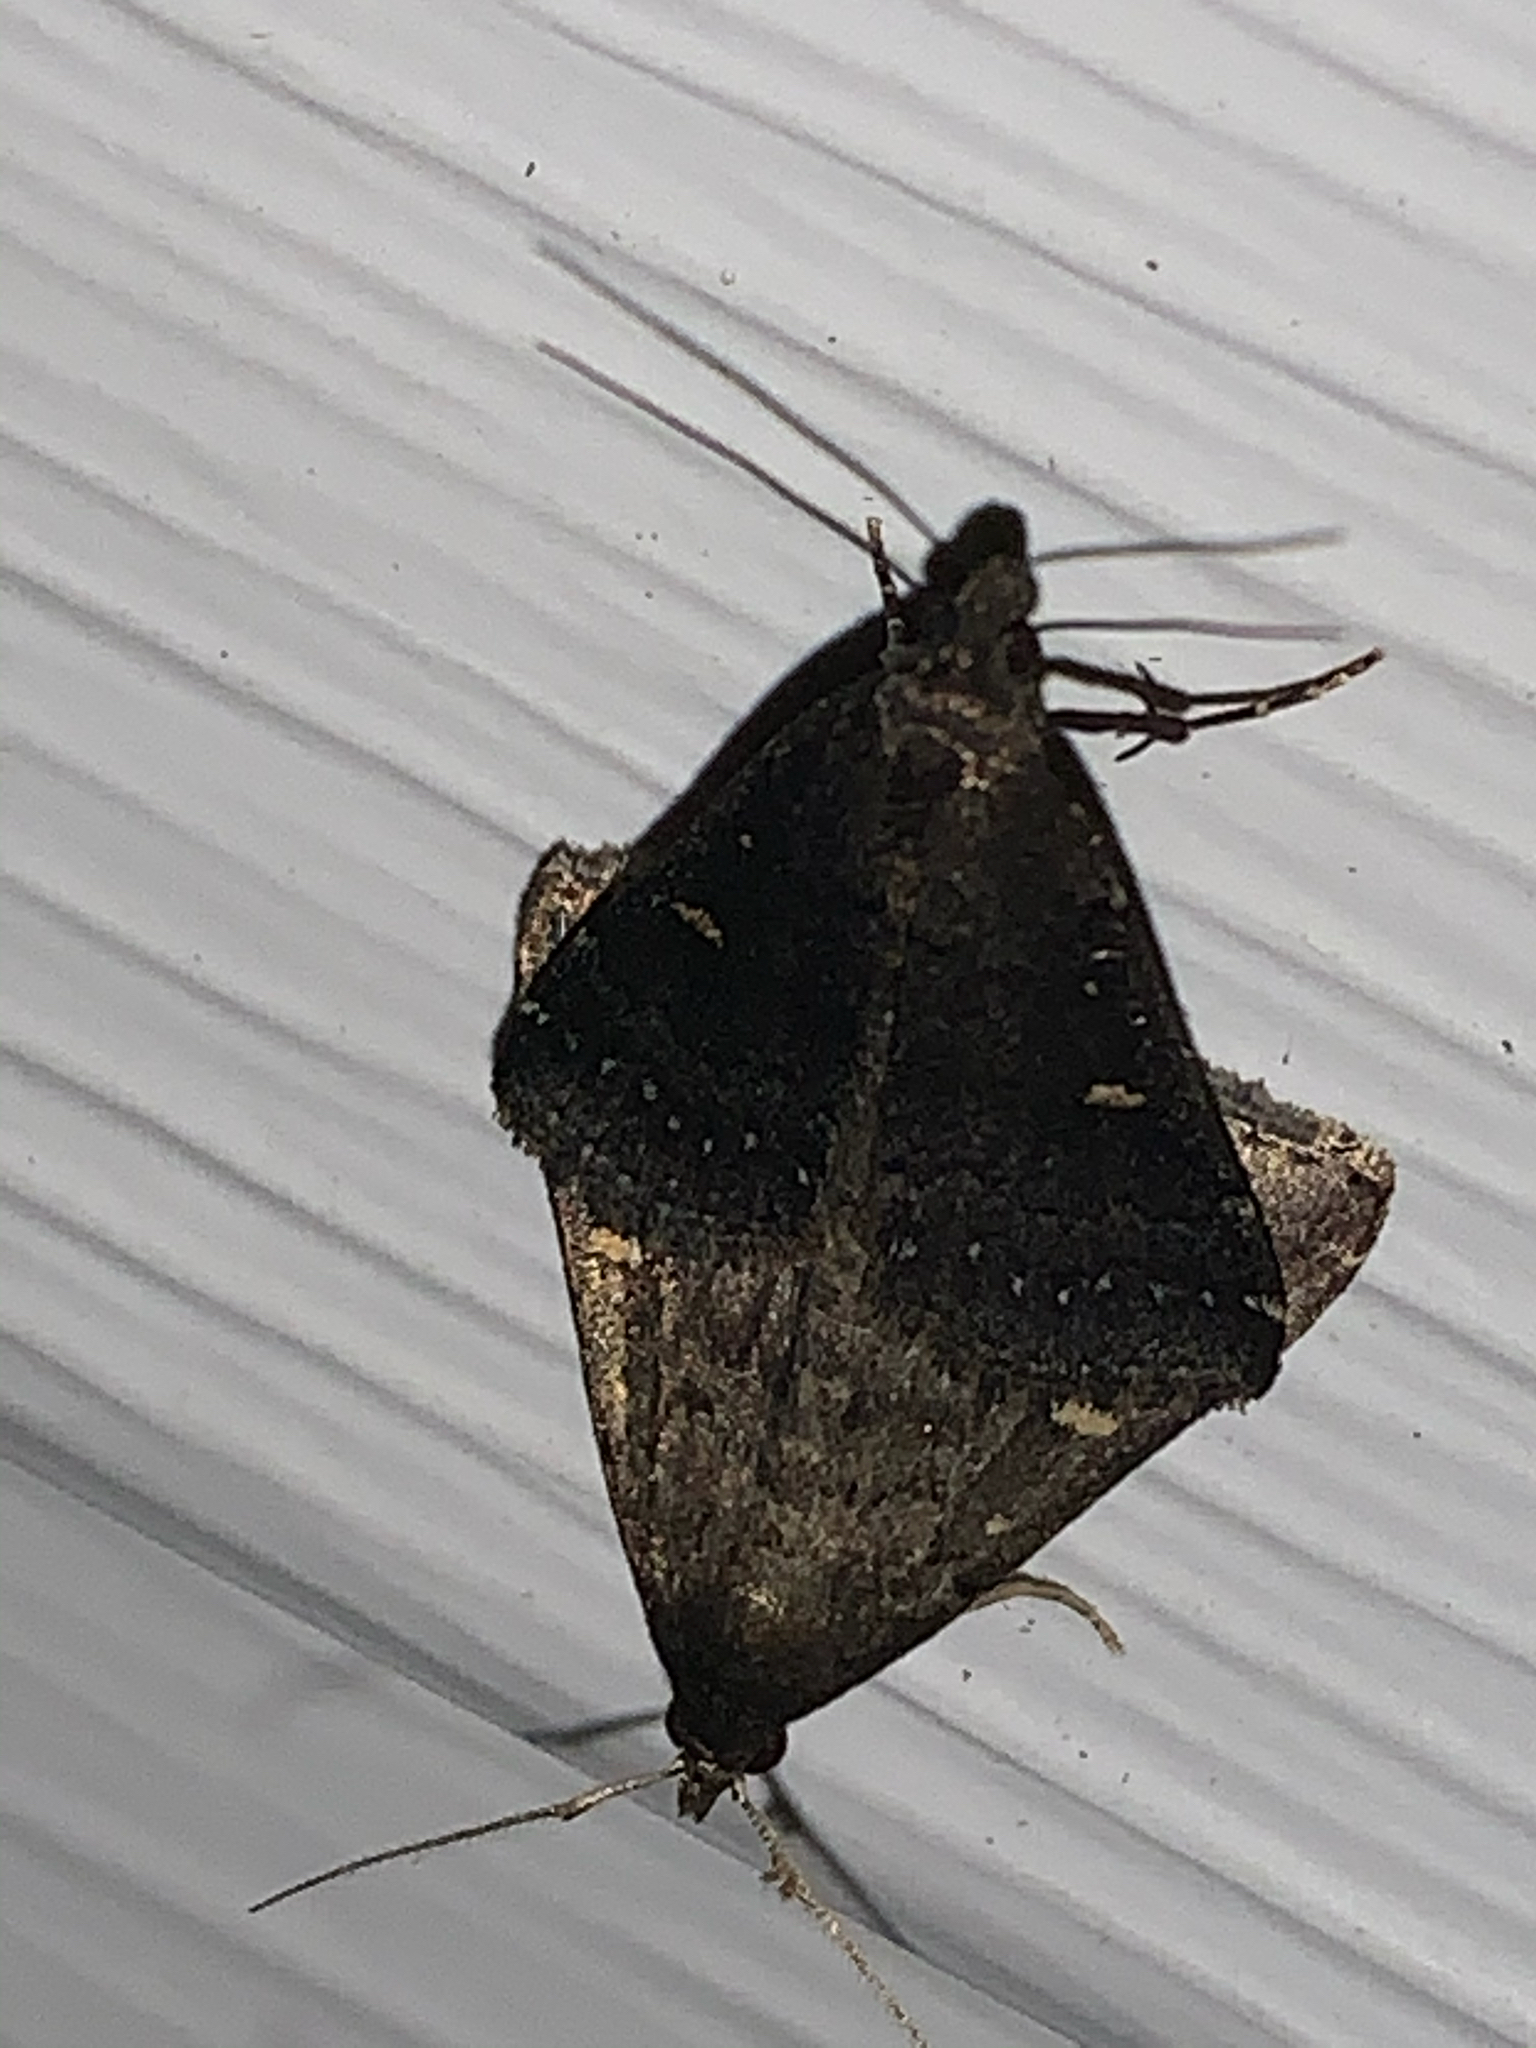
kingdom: Animalia
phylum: Arthropoda
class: Insecta
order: Lepidoptera
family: Erebidae
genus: Tetanolita
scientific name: Tetanolita mynesalis
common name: Smoky tetanolita moth
